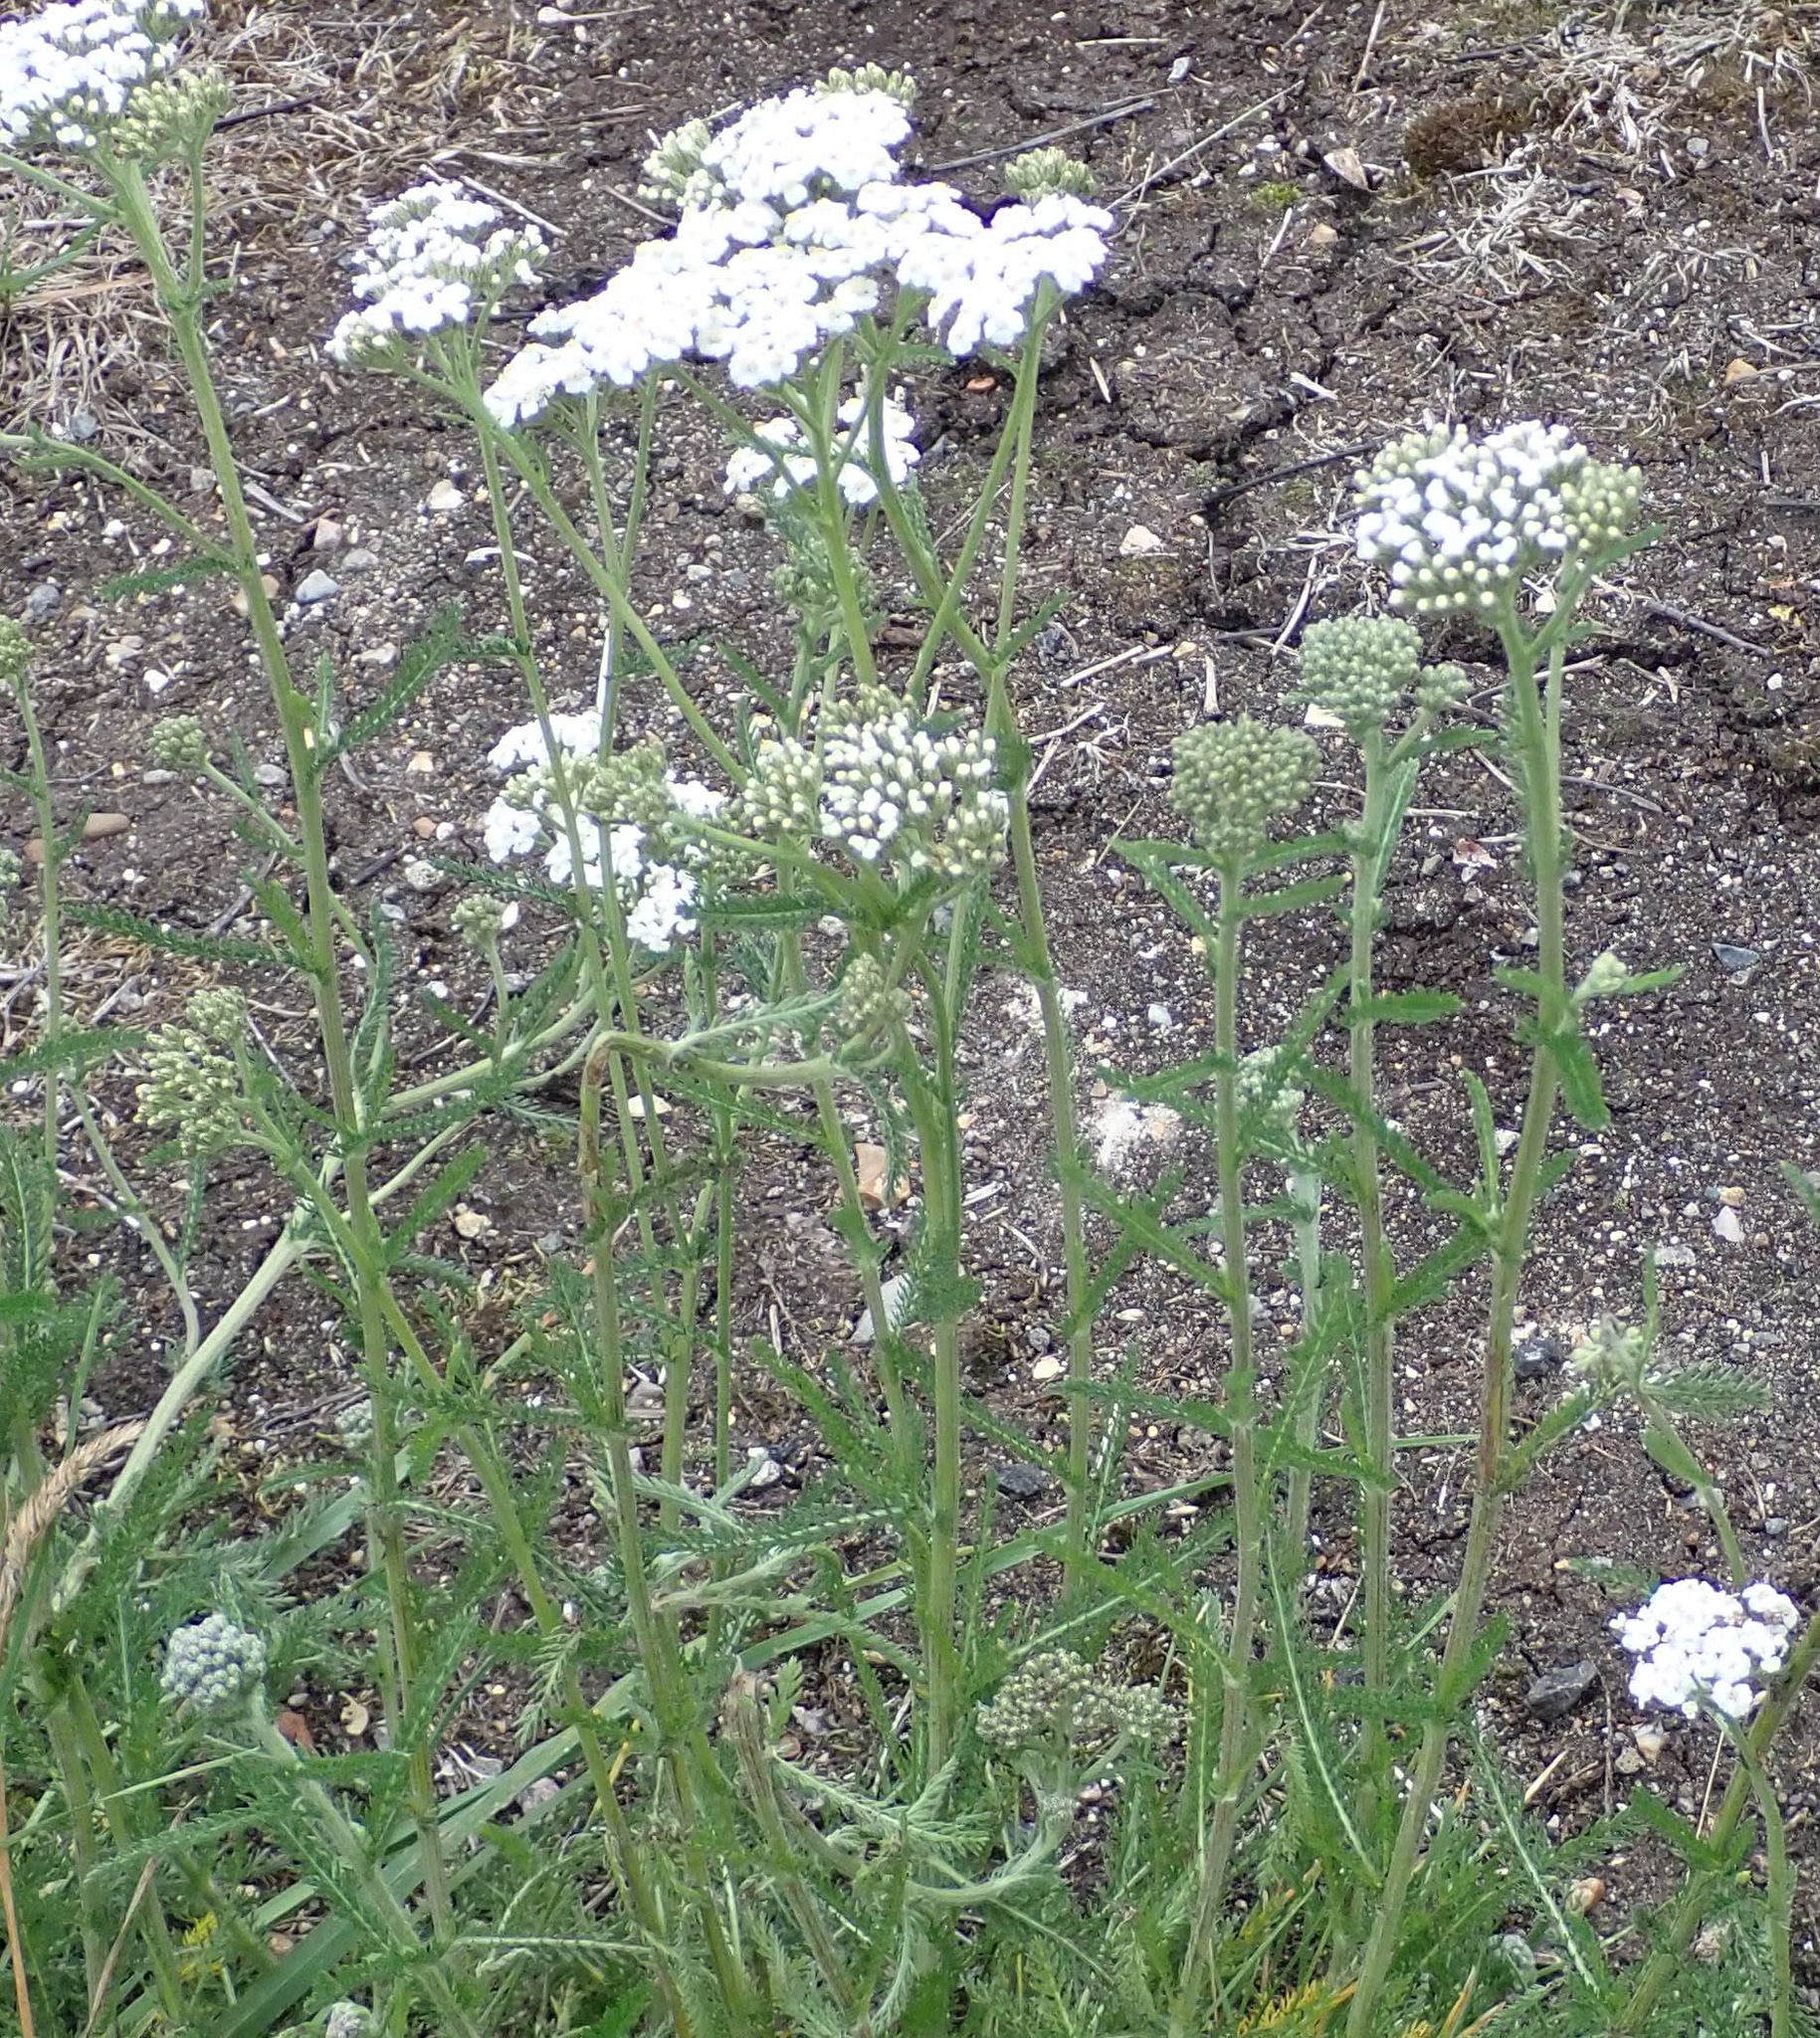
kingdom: Plantae
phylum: Tracheophyta
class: Magnoliopsida
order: Asterales
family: Asteraceae
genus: Achillea
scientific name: Achillea millefolium
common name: Yarrow
